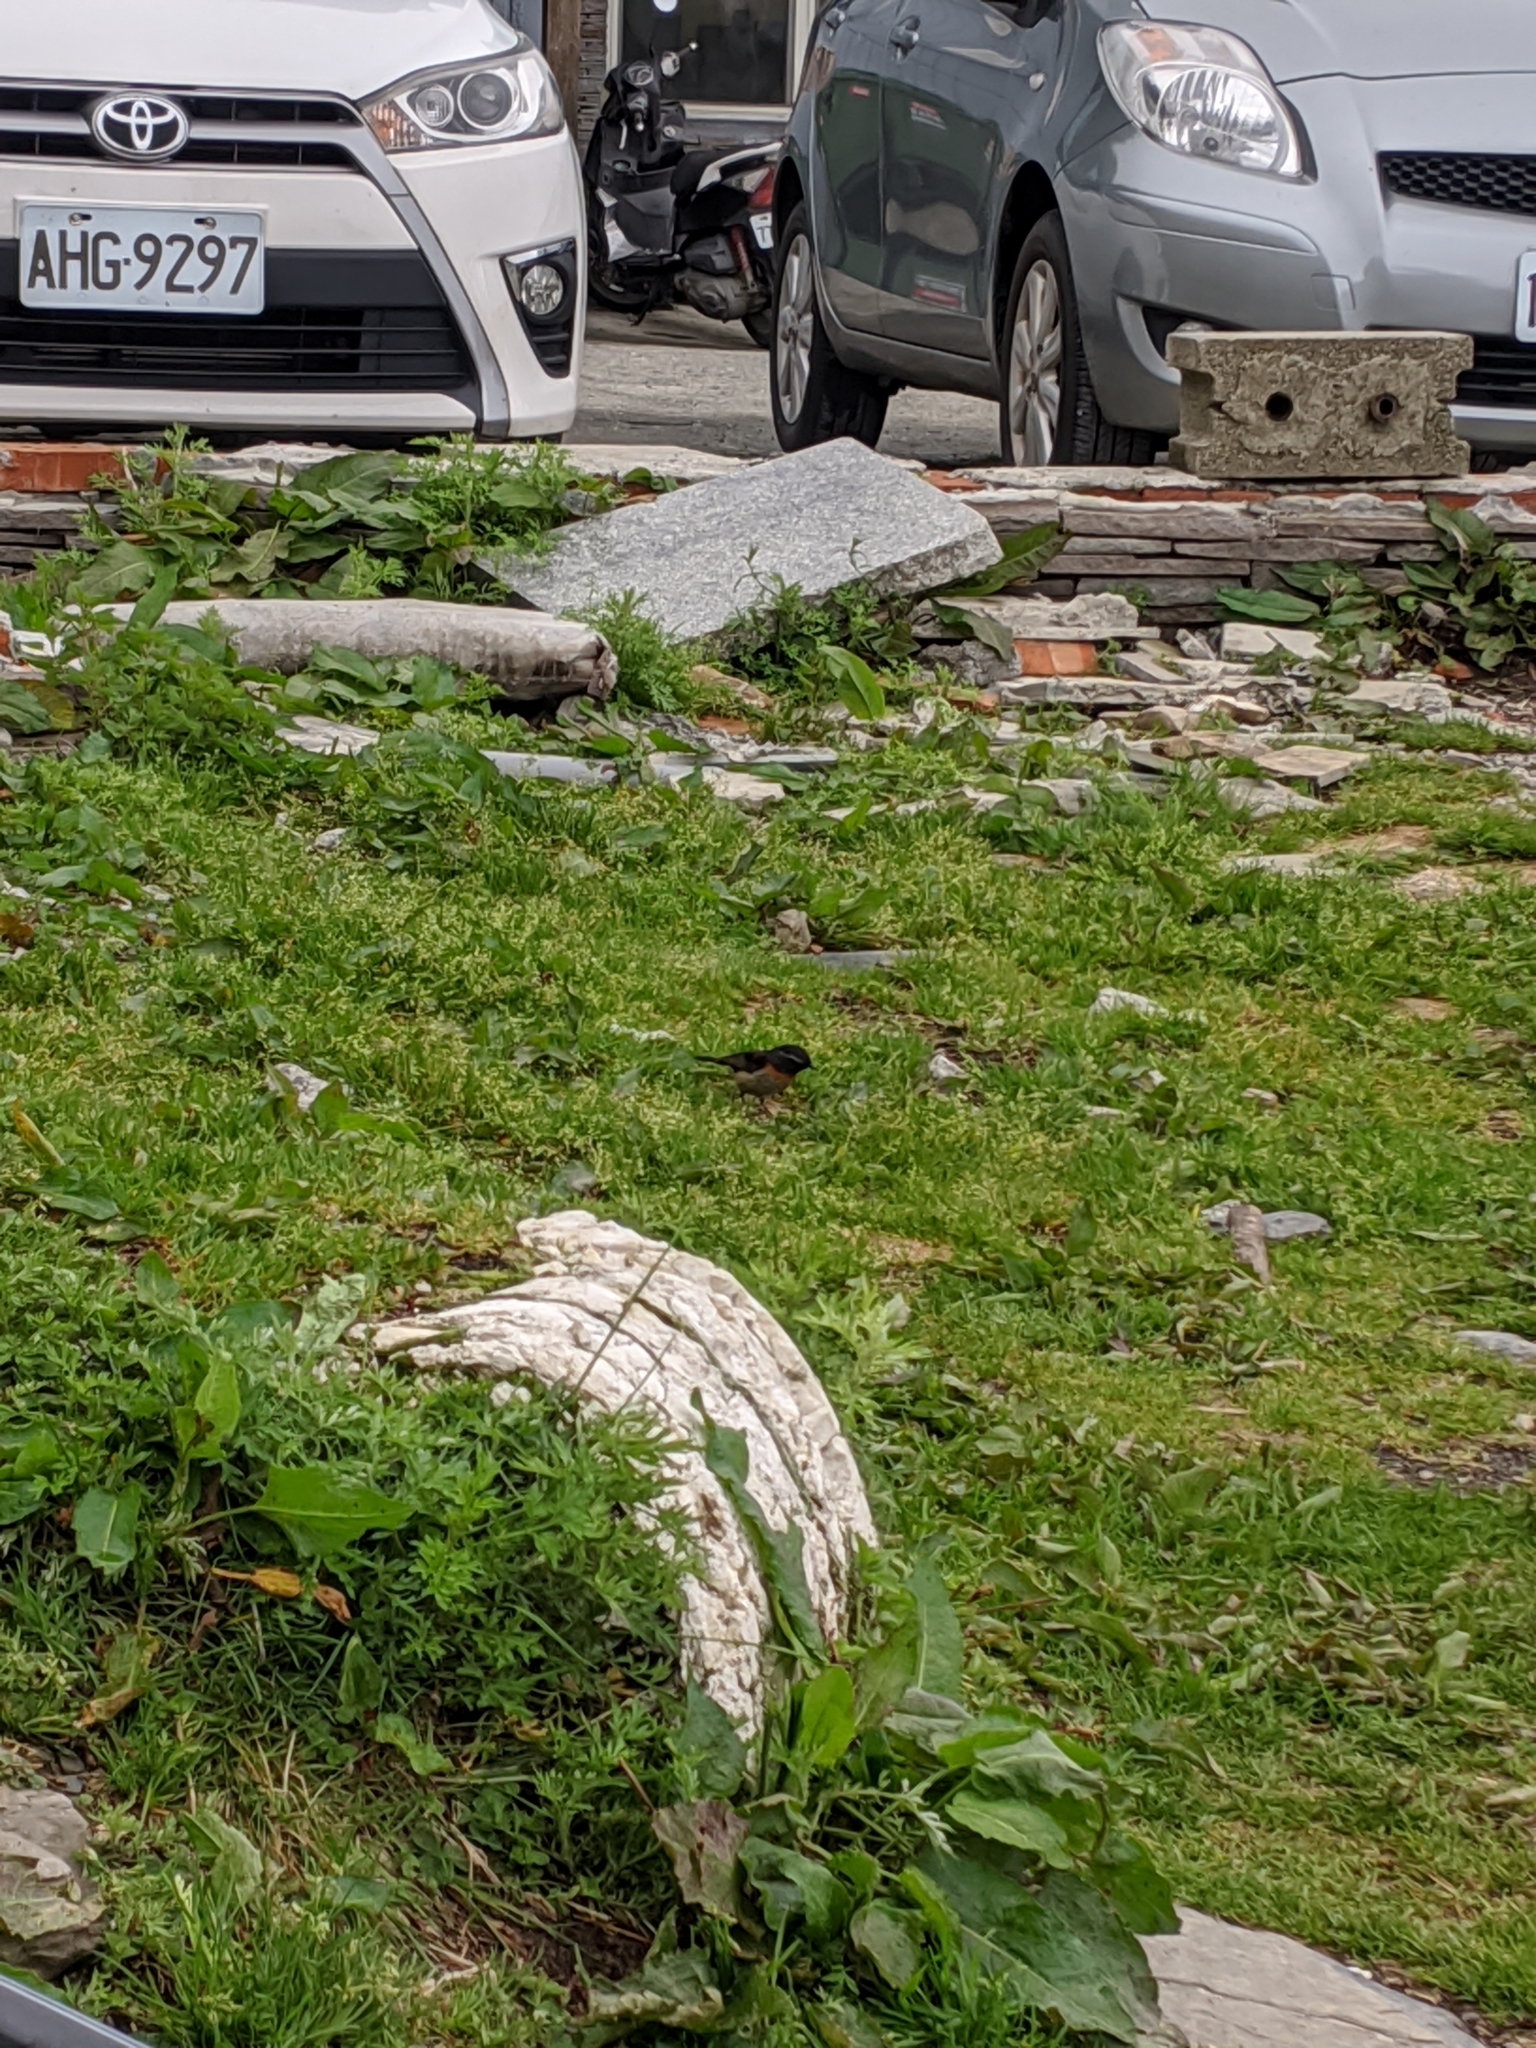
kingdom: Animalia
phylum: Chordata
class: Aves
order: Passeriformes
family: Muscicapidae
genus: Tarsiger
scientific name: Tarsiger johnstoniae
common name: Collared bush robin
